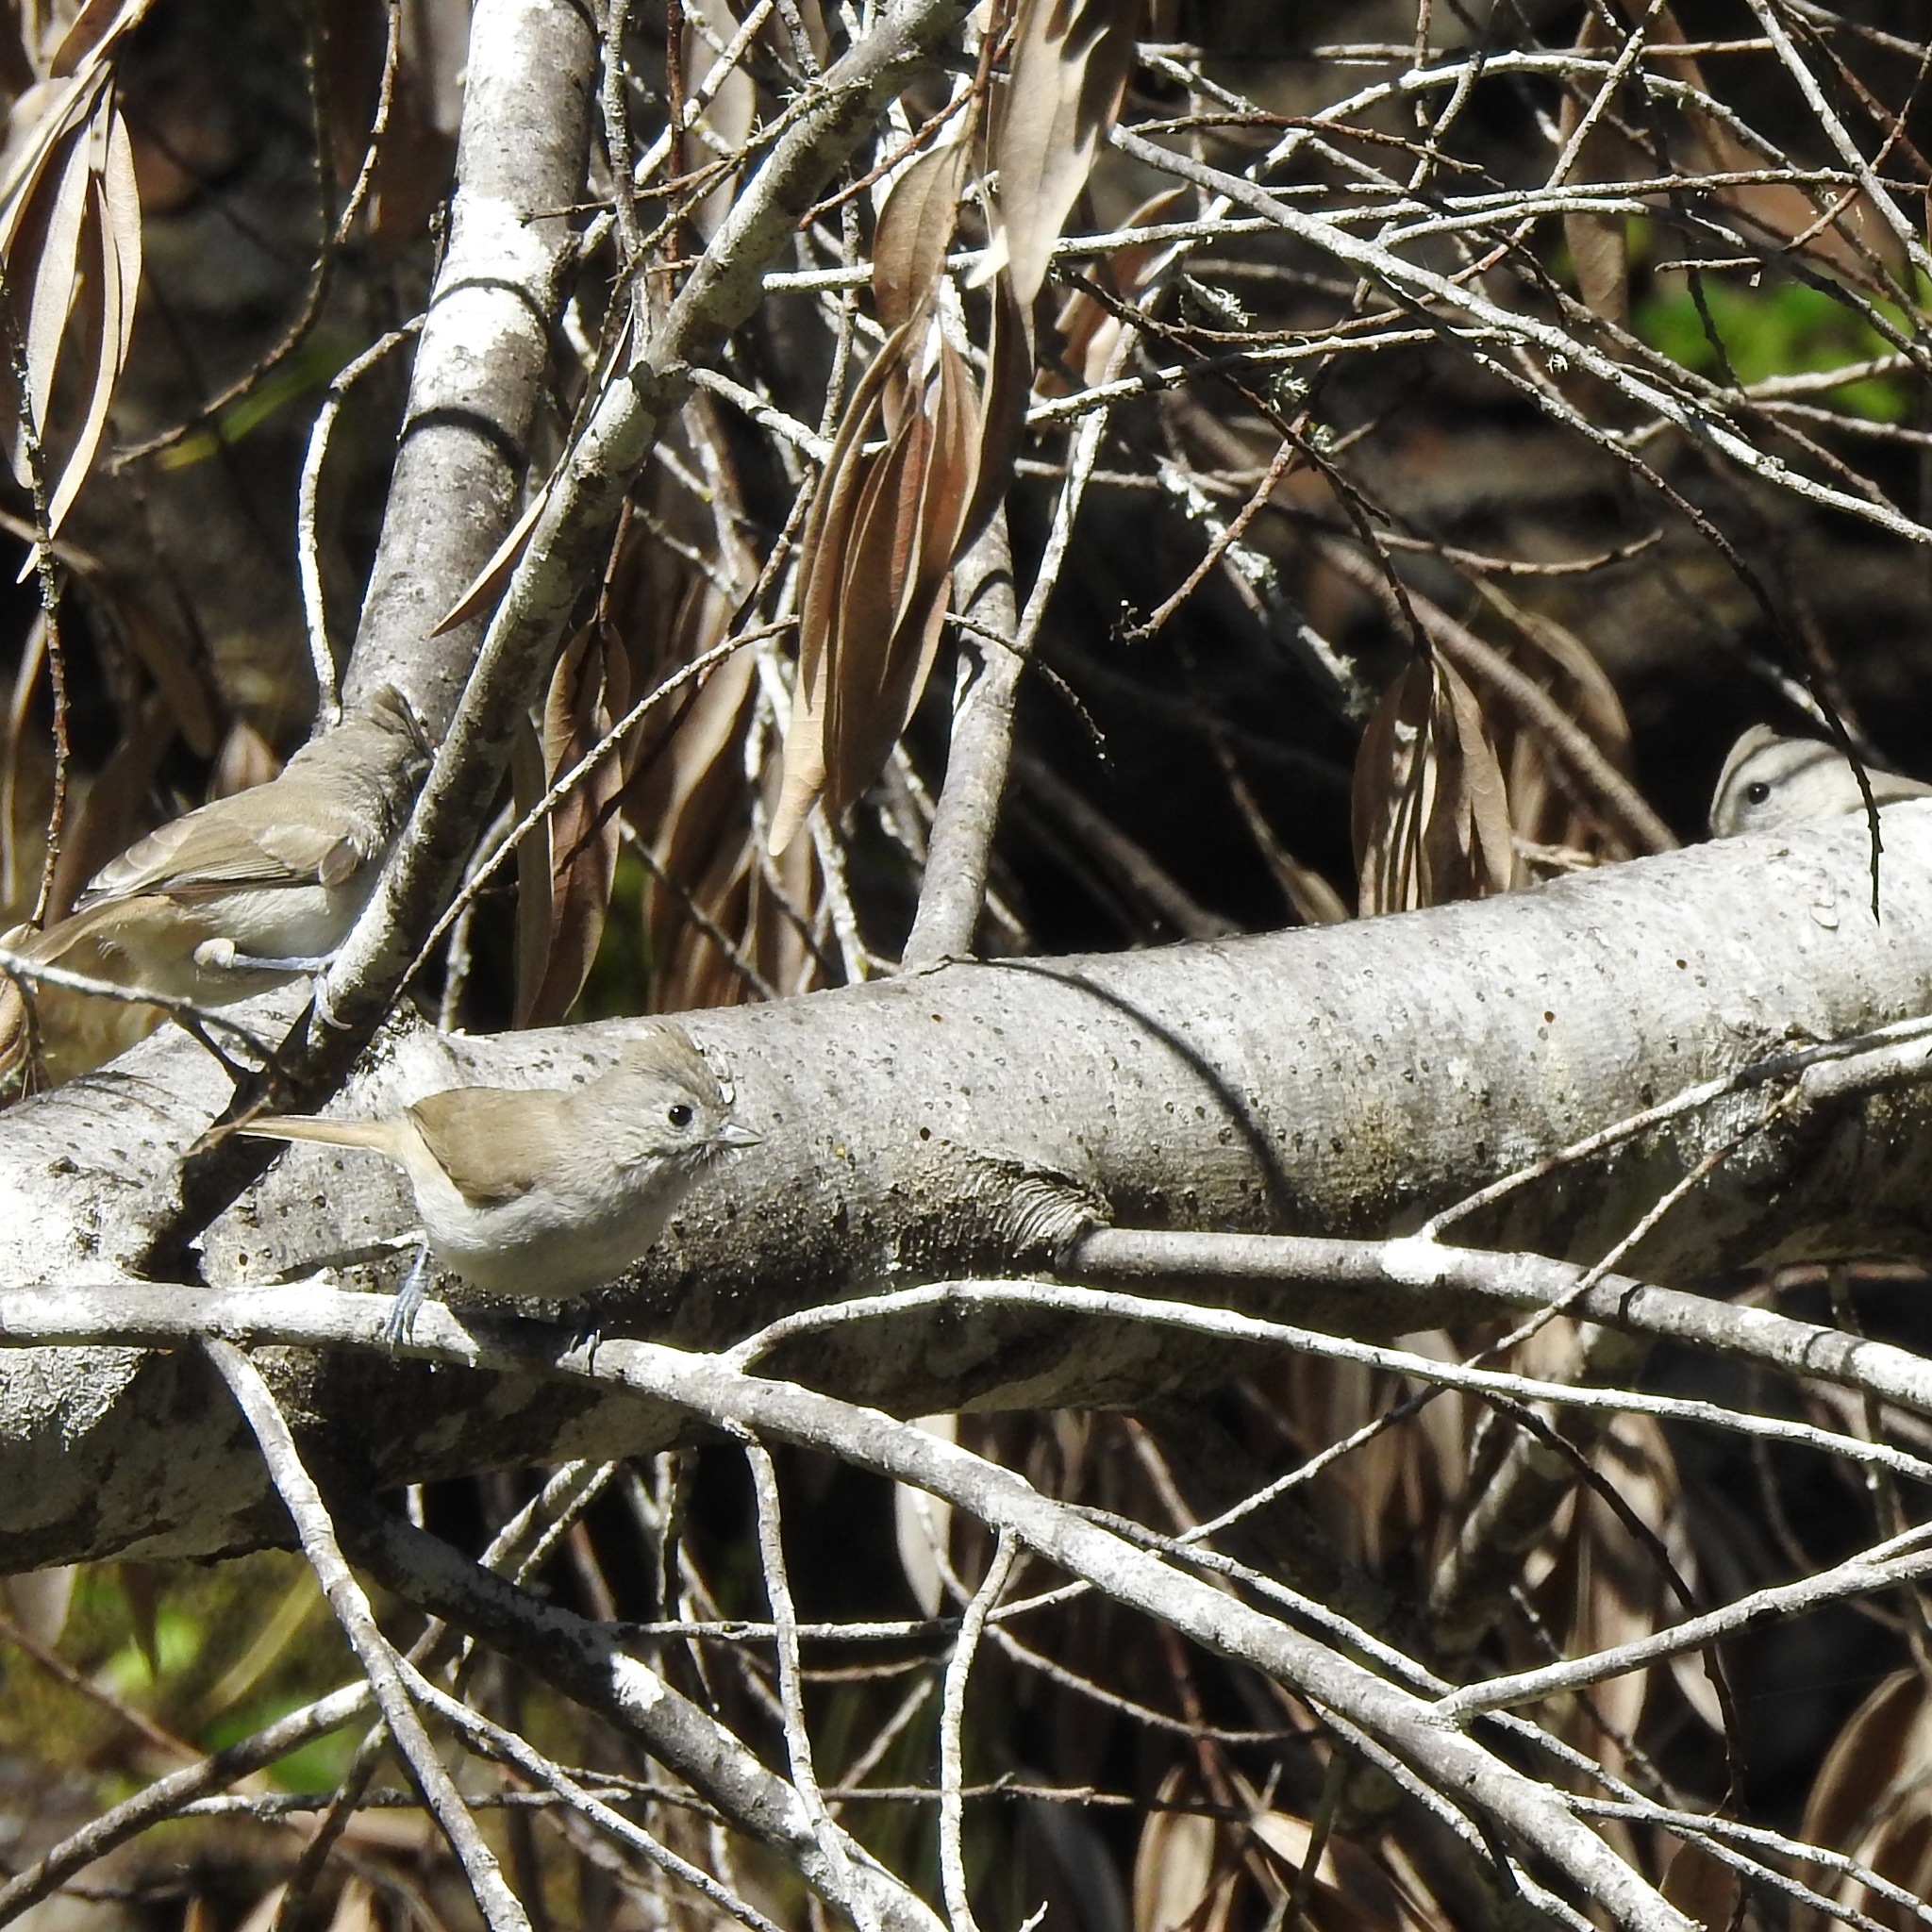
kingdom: Animalia
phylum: Chordata
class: Aves
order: Passeriformes
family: Paridae
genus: Baeolophus
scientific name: Baeolophus inornatus
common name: Oak titmouse
